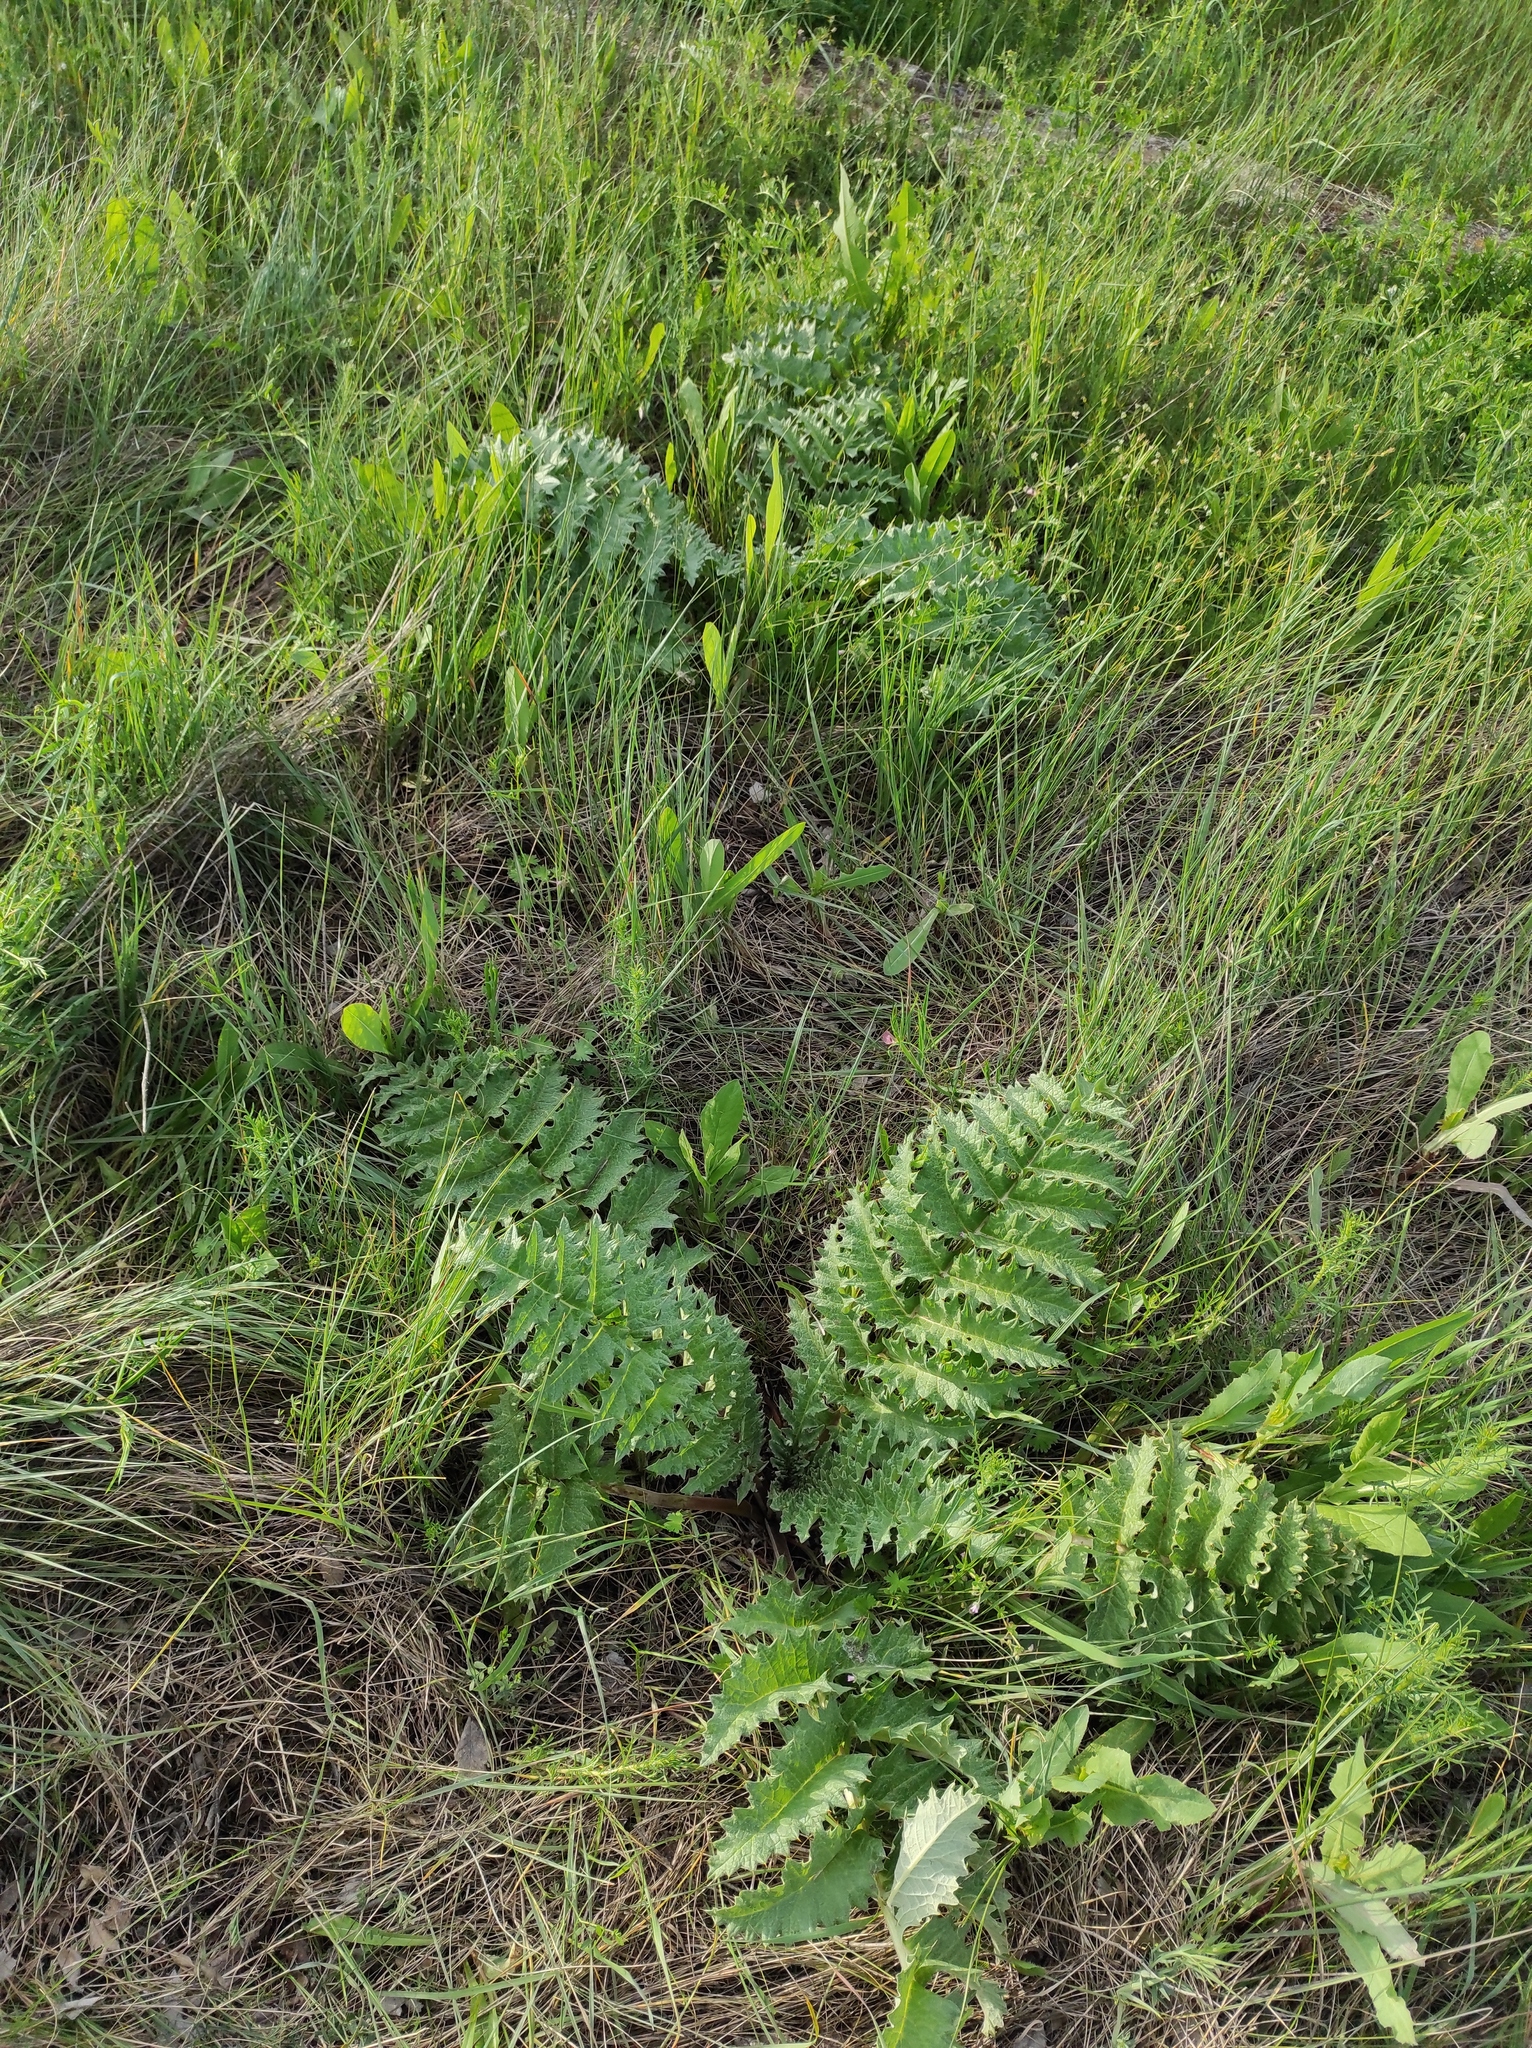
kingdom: Plantae
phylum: Tracheophyta
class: Magnoliopsida
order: Asterales
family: Asteraceae
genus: Cynara
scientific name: Cynara tournefortii
